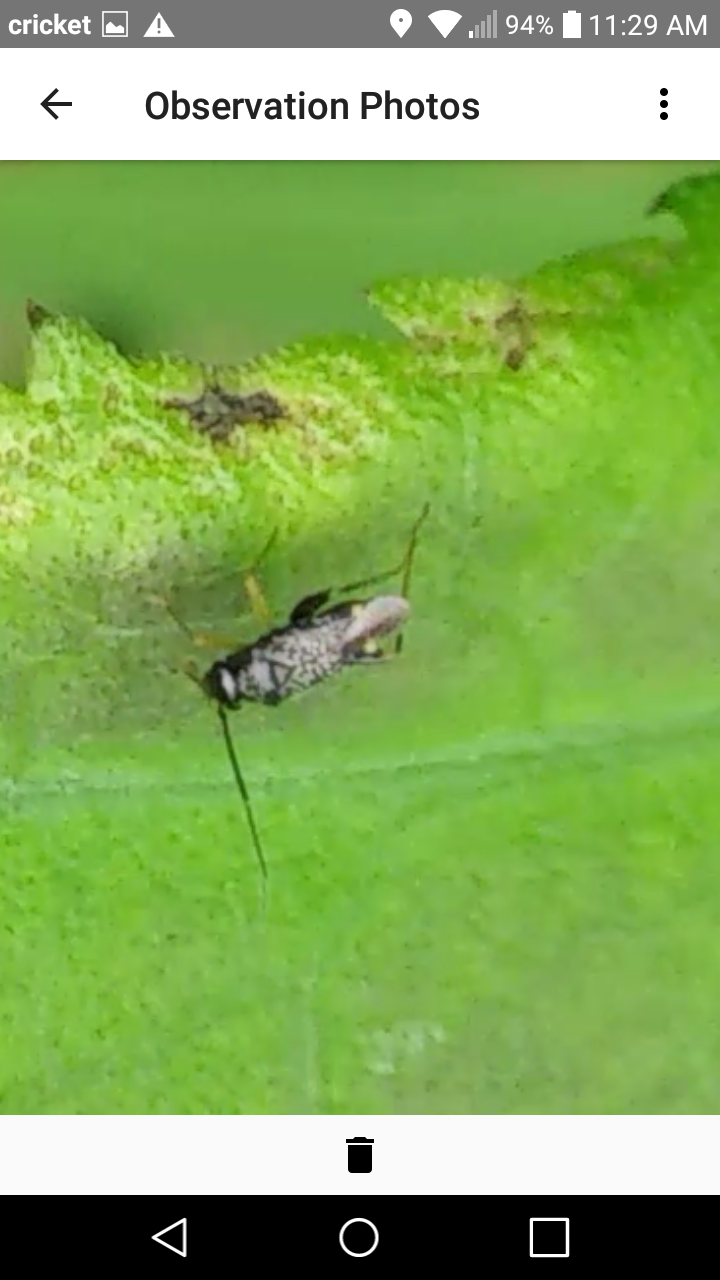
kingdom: Animalia
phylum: Arthropoda
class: Insecta
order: Hemiptera
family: Miridae
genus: Microtechnites
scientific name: Microtechnites bractatus
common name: Garden fleahopper
